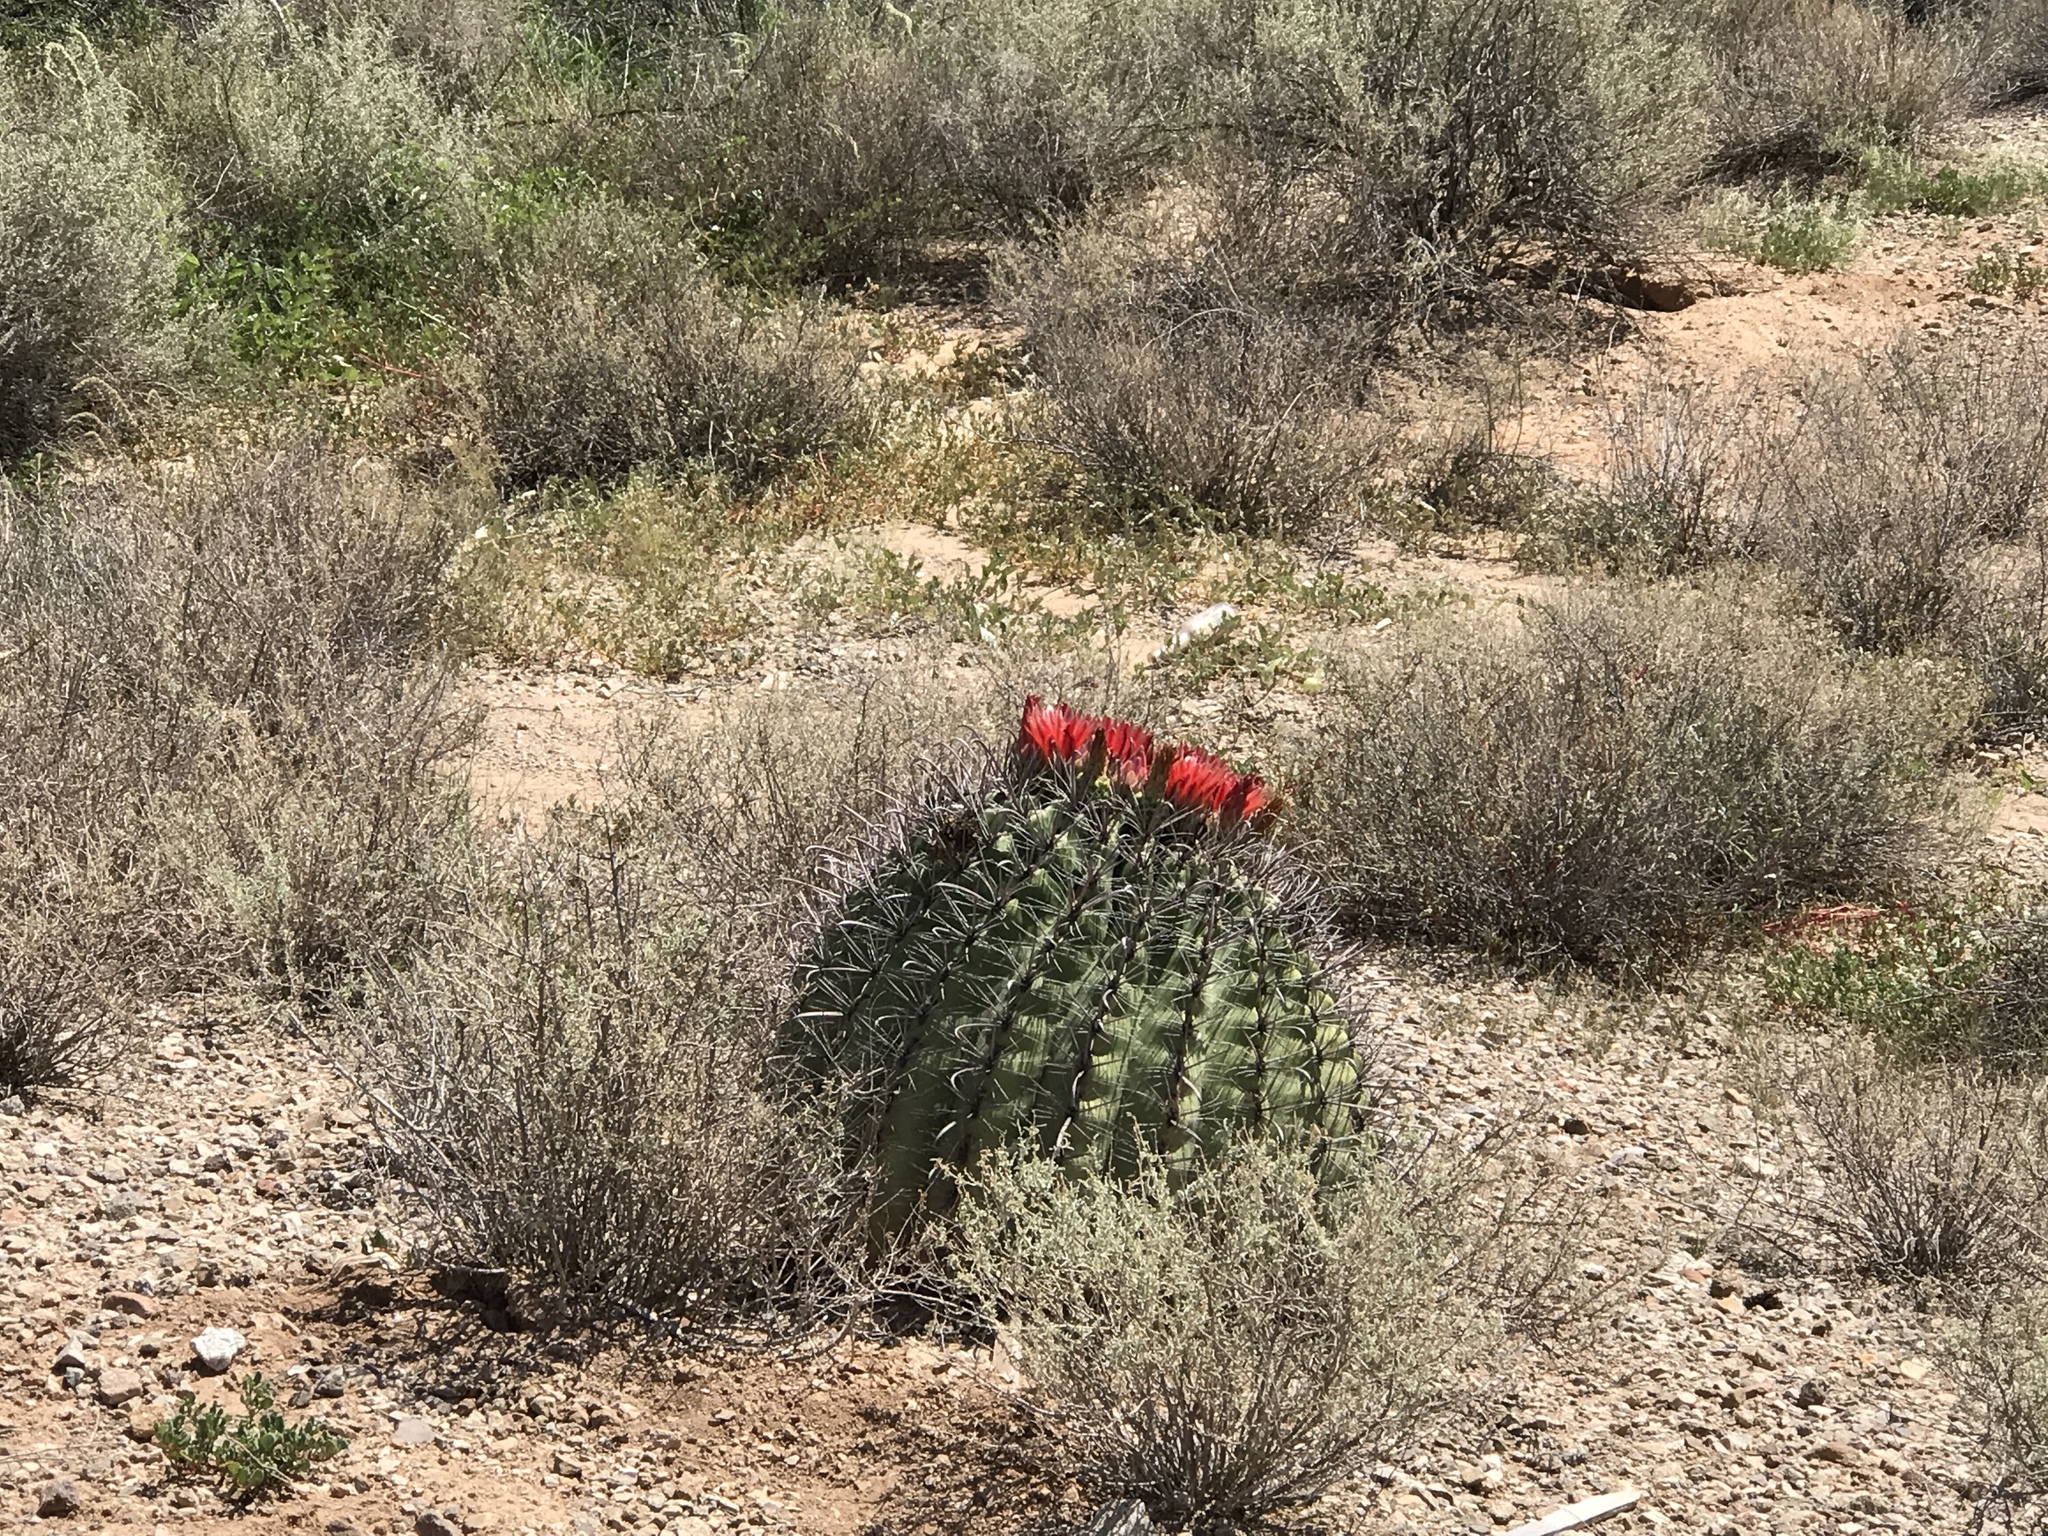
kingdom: Plantae
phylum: Tracheophyta
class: Magnoliopsida
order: Caryophyllales
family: Cactaceae
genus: Ferocactus
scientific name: Ferocactus wislizeni
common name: Candy barrel cactus
